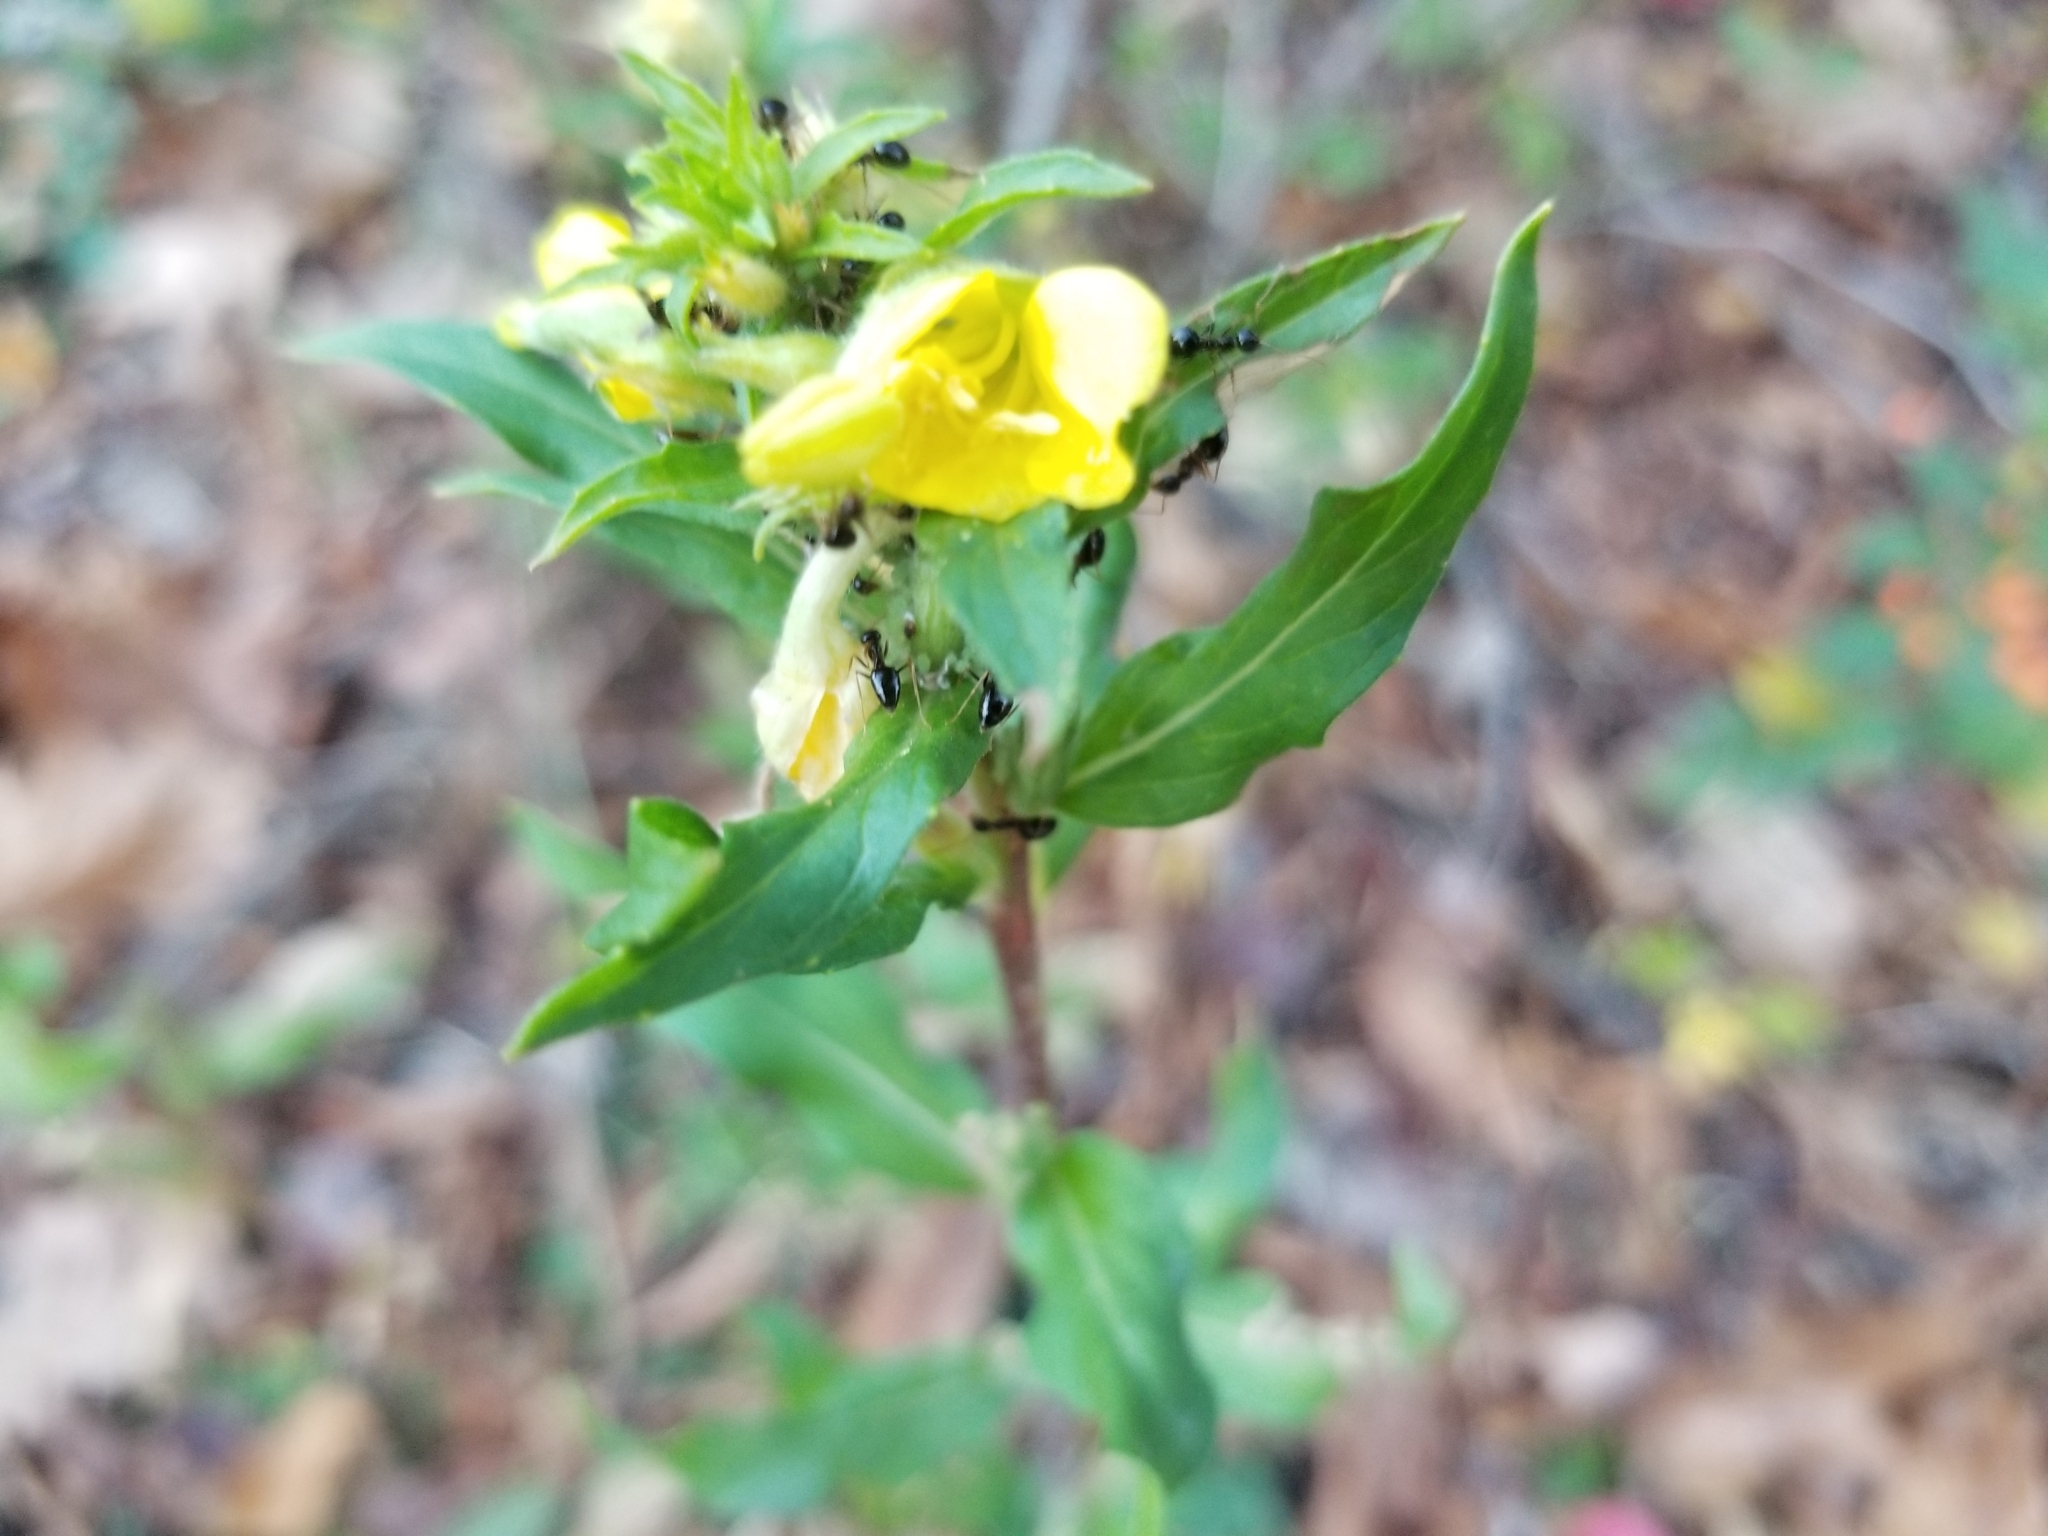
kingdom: Animalia
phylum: Arthropoda
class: Insecta
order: Hymenoptera
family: Formicidae
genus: Prenolepis
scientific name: Prenolepis imparis
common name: Small honey ant
